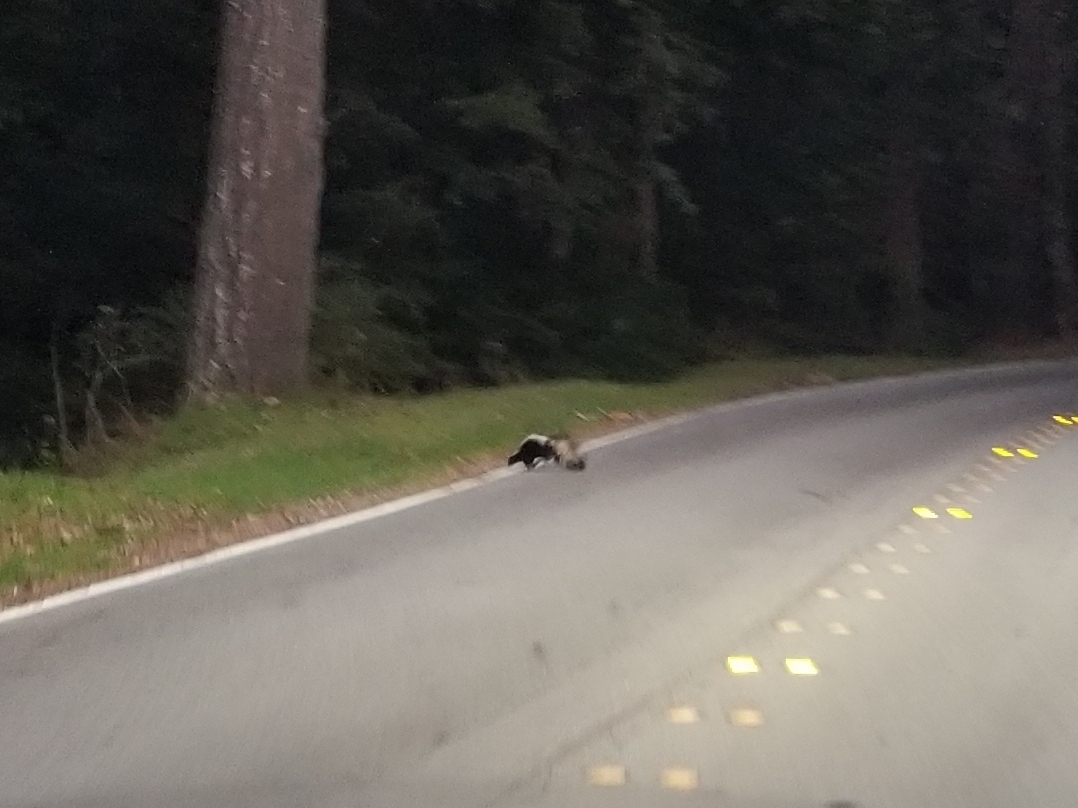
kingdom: Animalia
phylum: Chordata
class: Mammalia
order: Carnivora
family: Mephitidae
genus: Mephitis
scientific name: Mephitis mephitis
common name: Striped skunk
